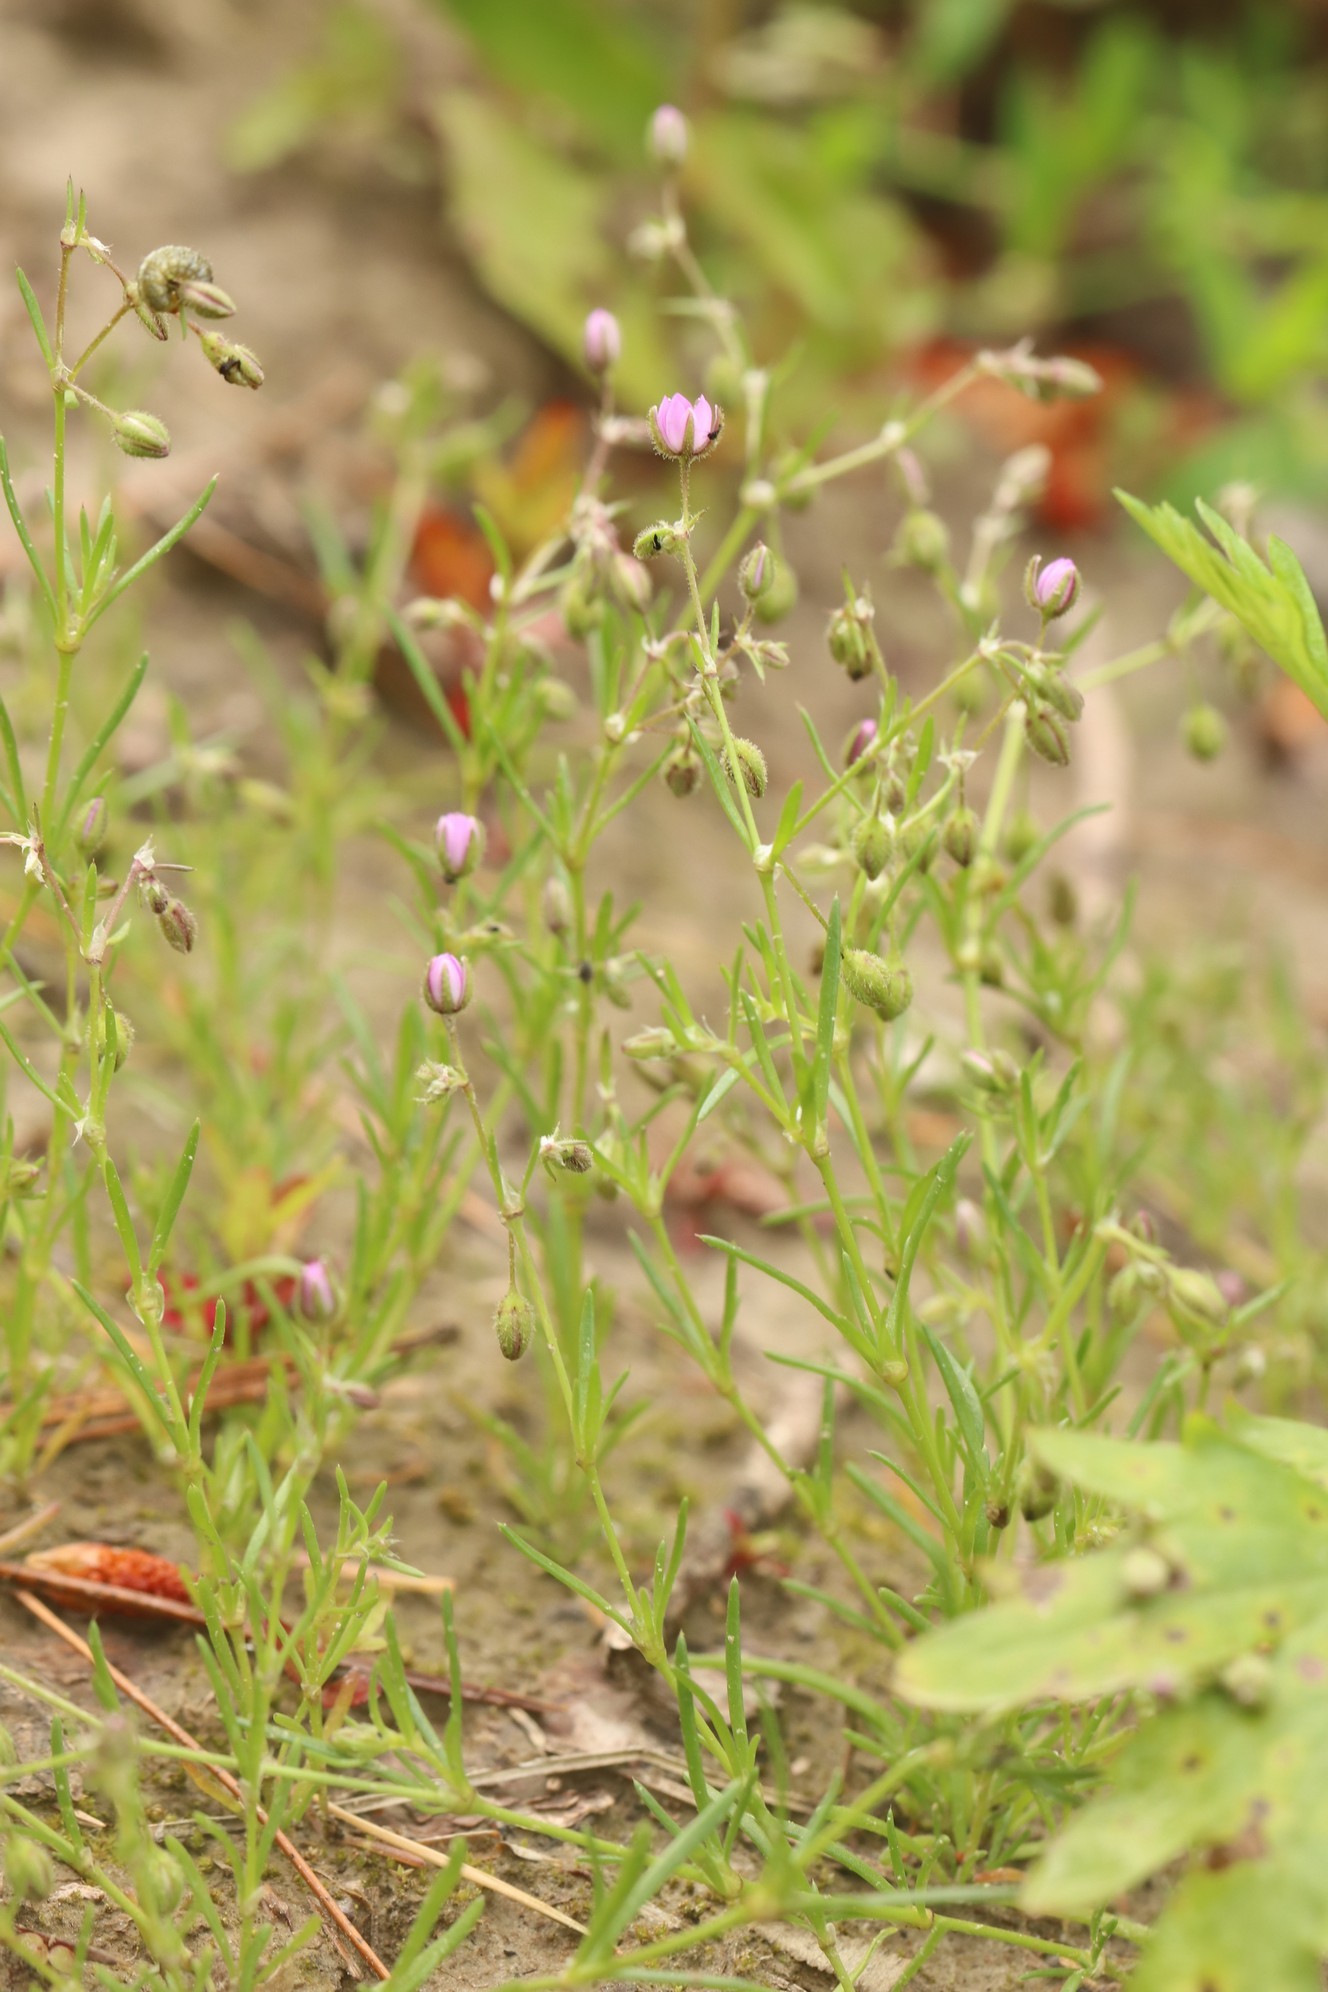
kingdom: Plantae
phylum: Tracheophyta
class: Magnoliopsida
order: Caryophyllales
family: Caryophyllaceae
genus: Spergularia
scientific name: Spergularia rubra
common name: Red sand-spurrey
